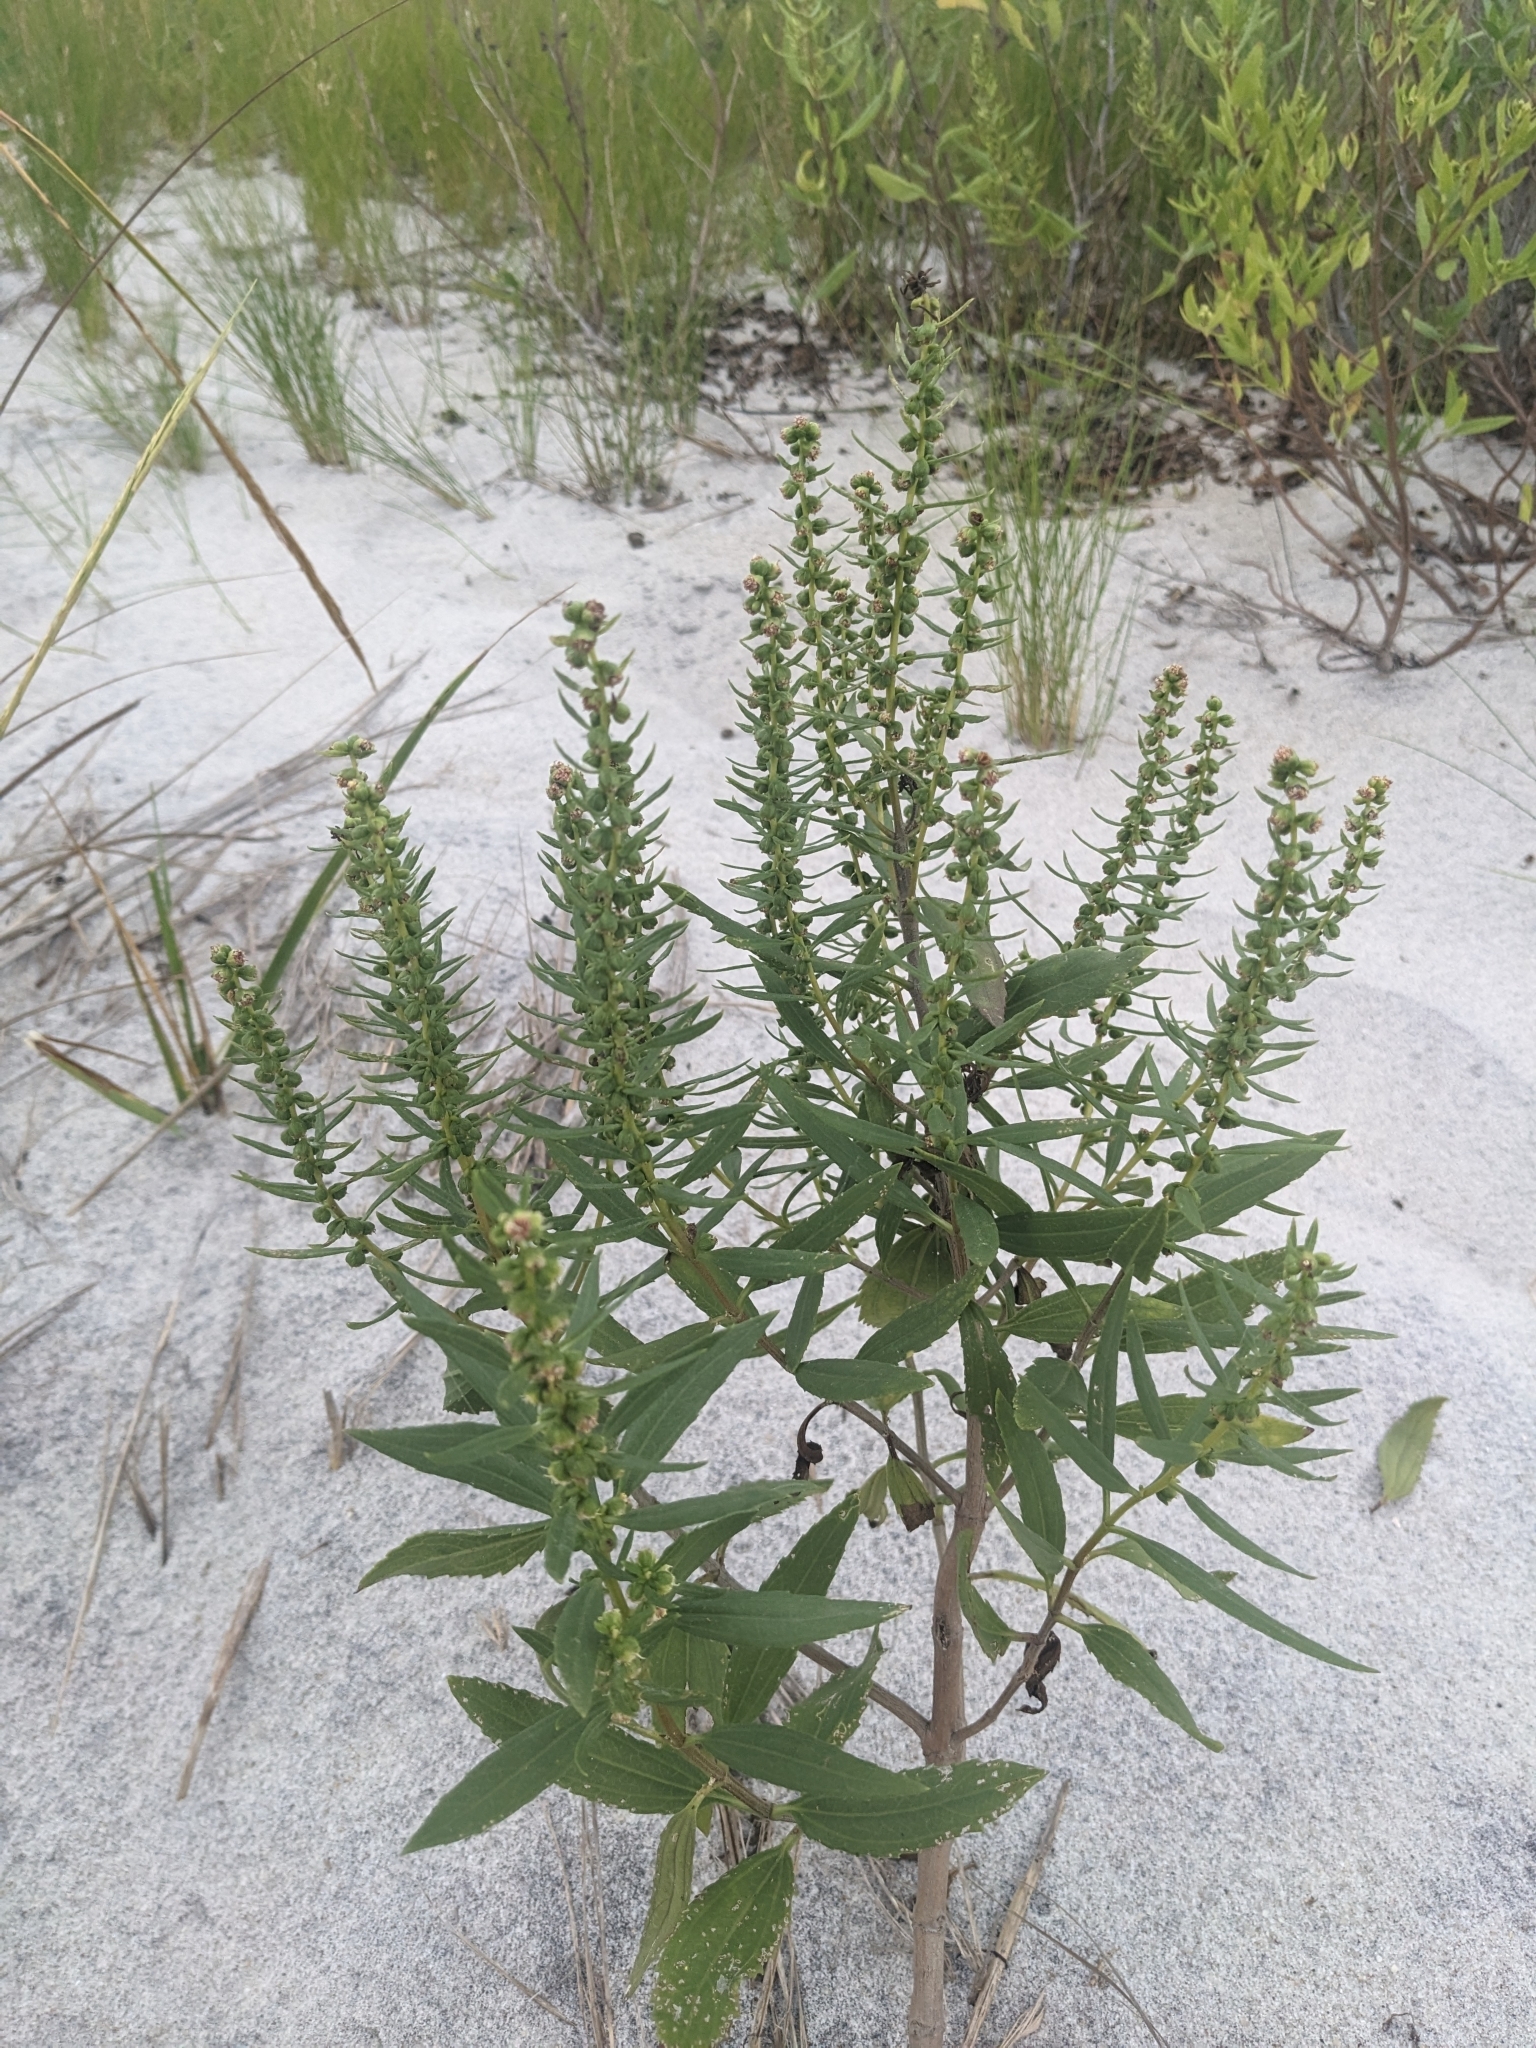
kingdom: Plantae
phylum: Tracheophyta
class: Magnoliopsida
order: Asterales
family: Asteraceae
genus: Iva
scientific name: Iva frutescens
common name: Big-leaved marsh-elder
